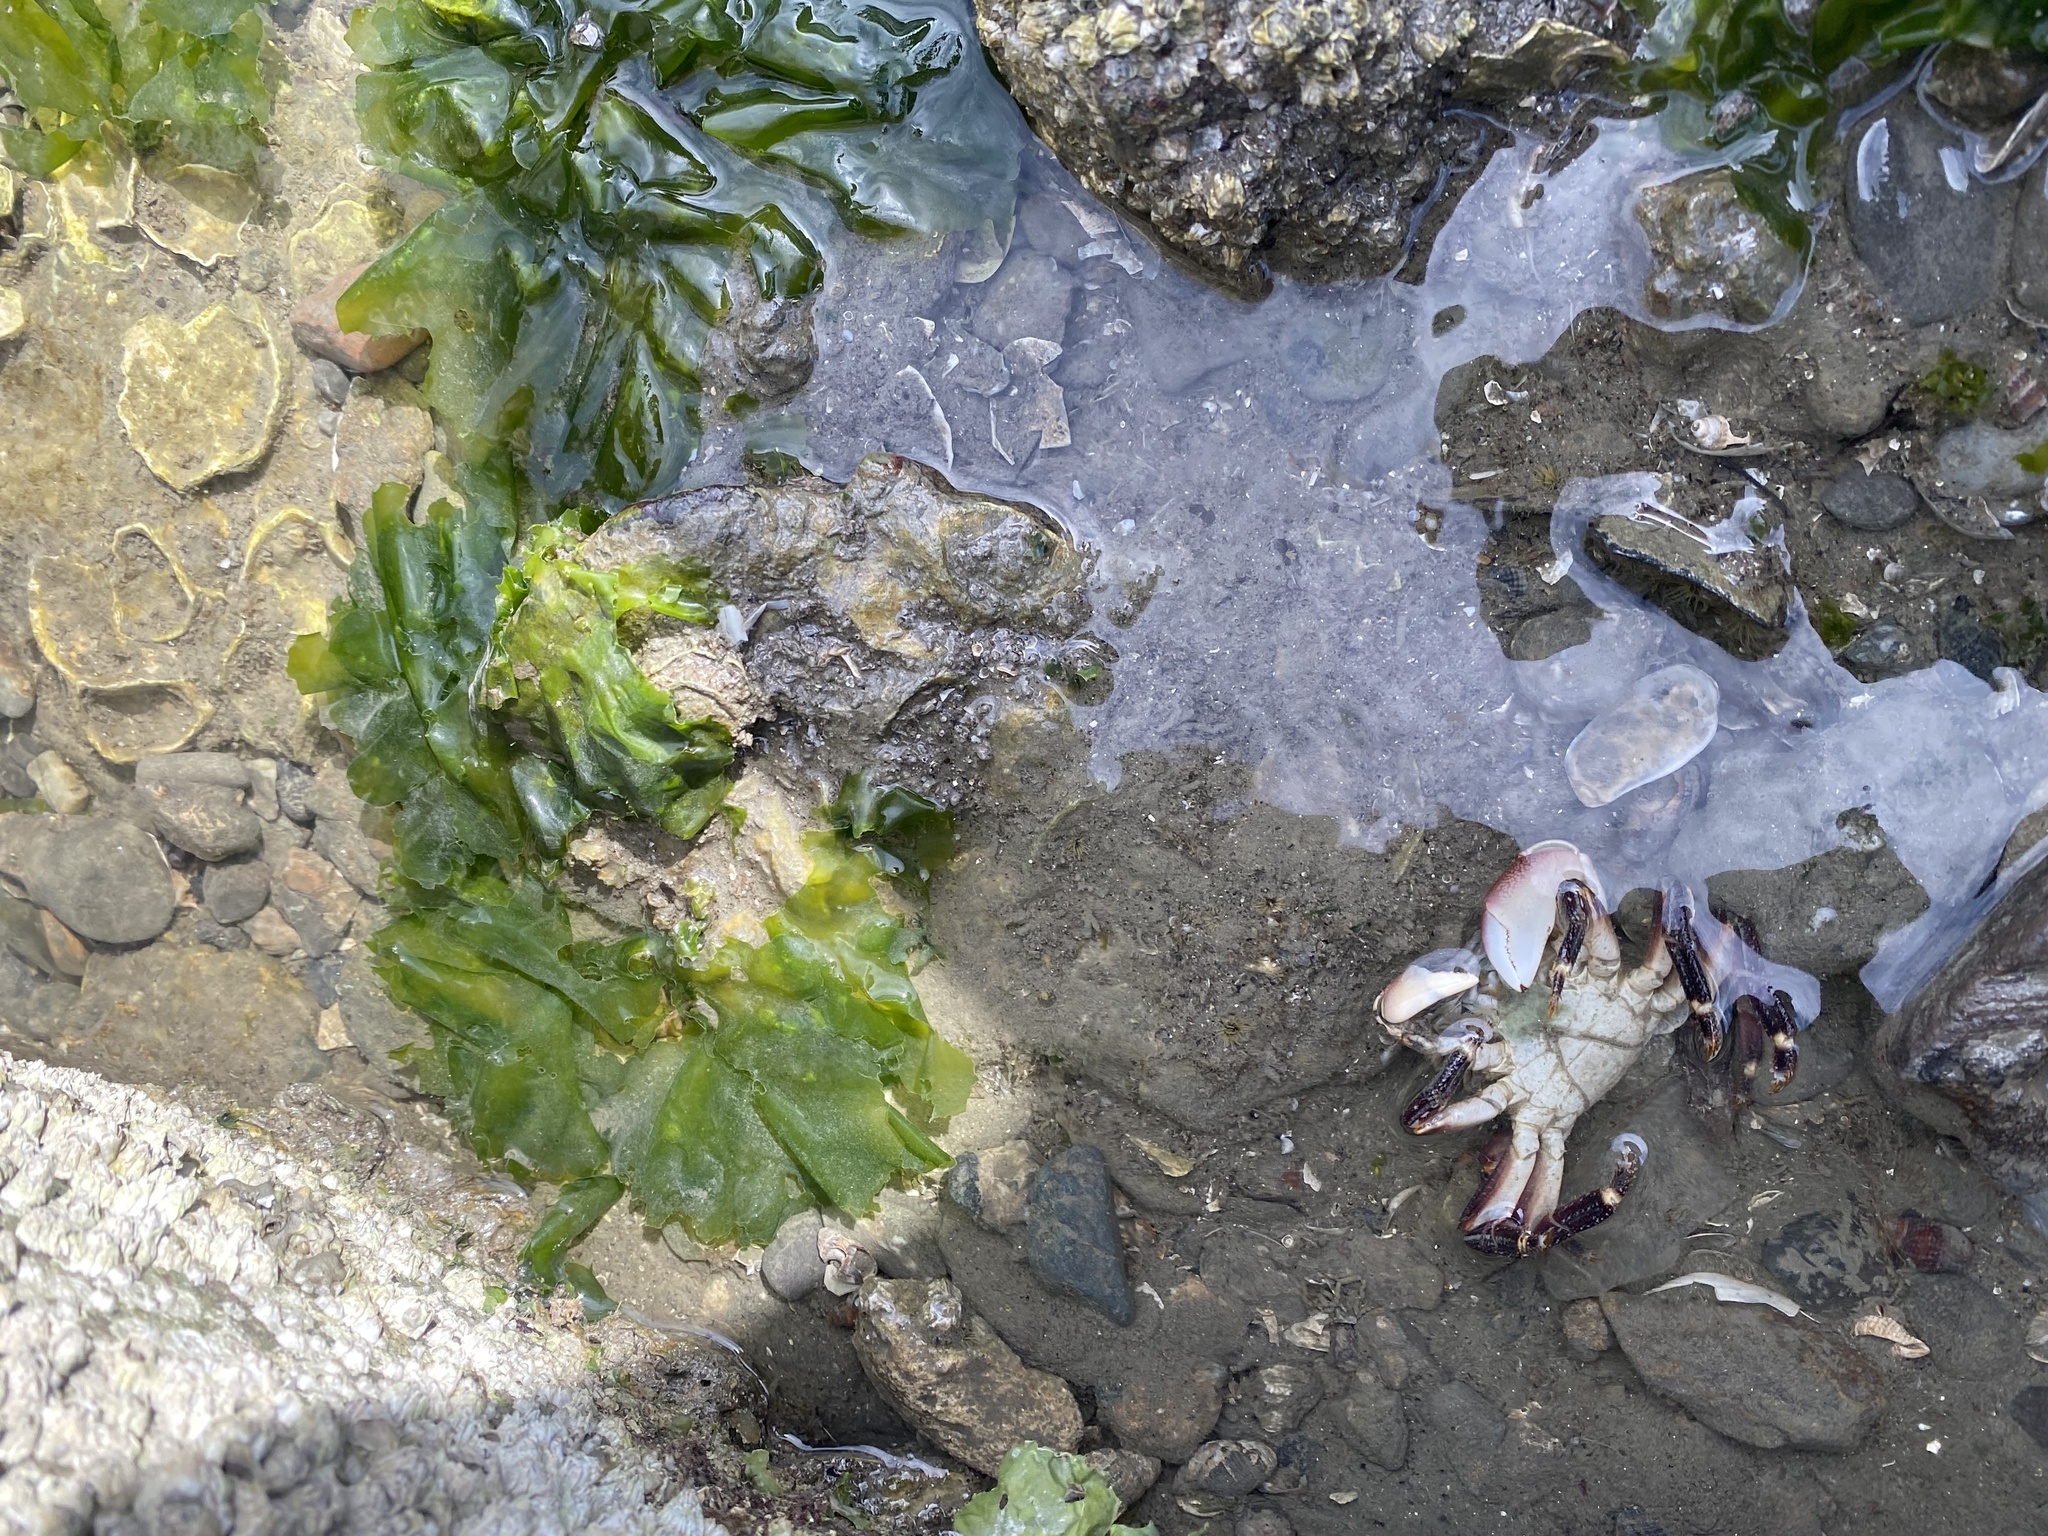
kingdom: Animalia
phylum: Arthropoda
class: Malacostraca
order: Decapoda
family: Grapsidae
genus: Pachygrapsus
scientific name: Pachygrapsus crassipes
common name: Striped shore crab
